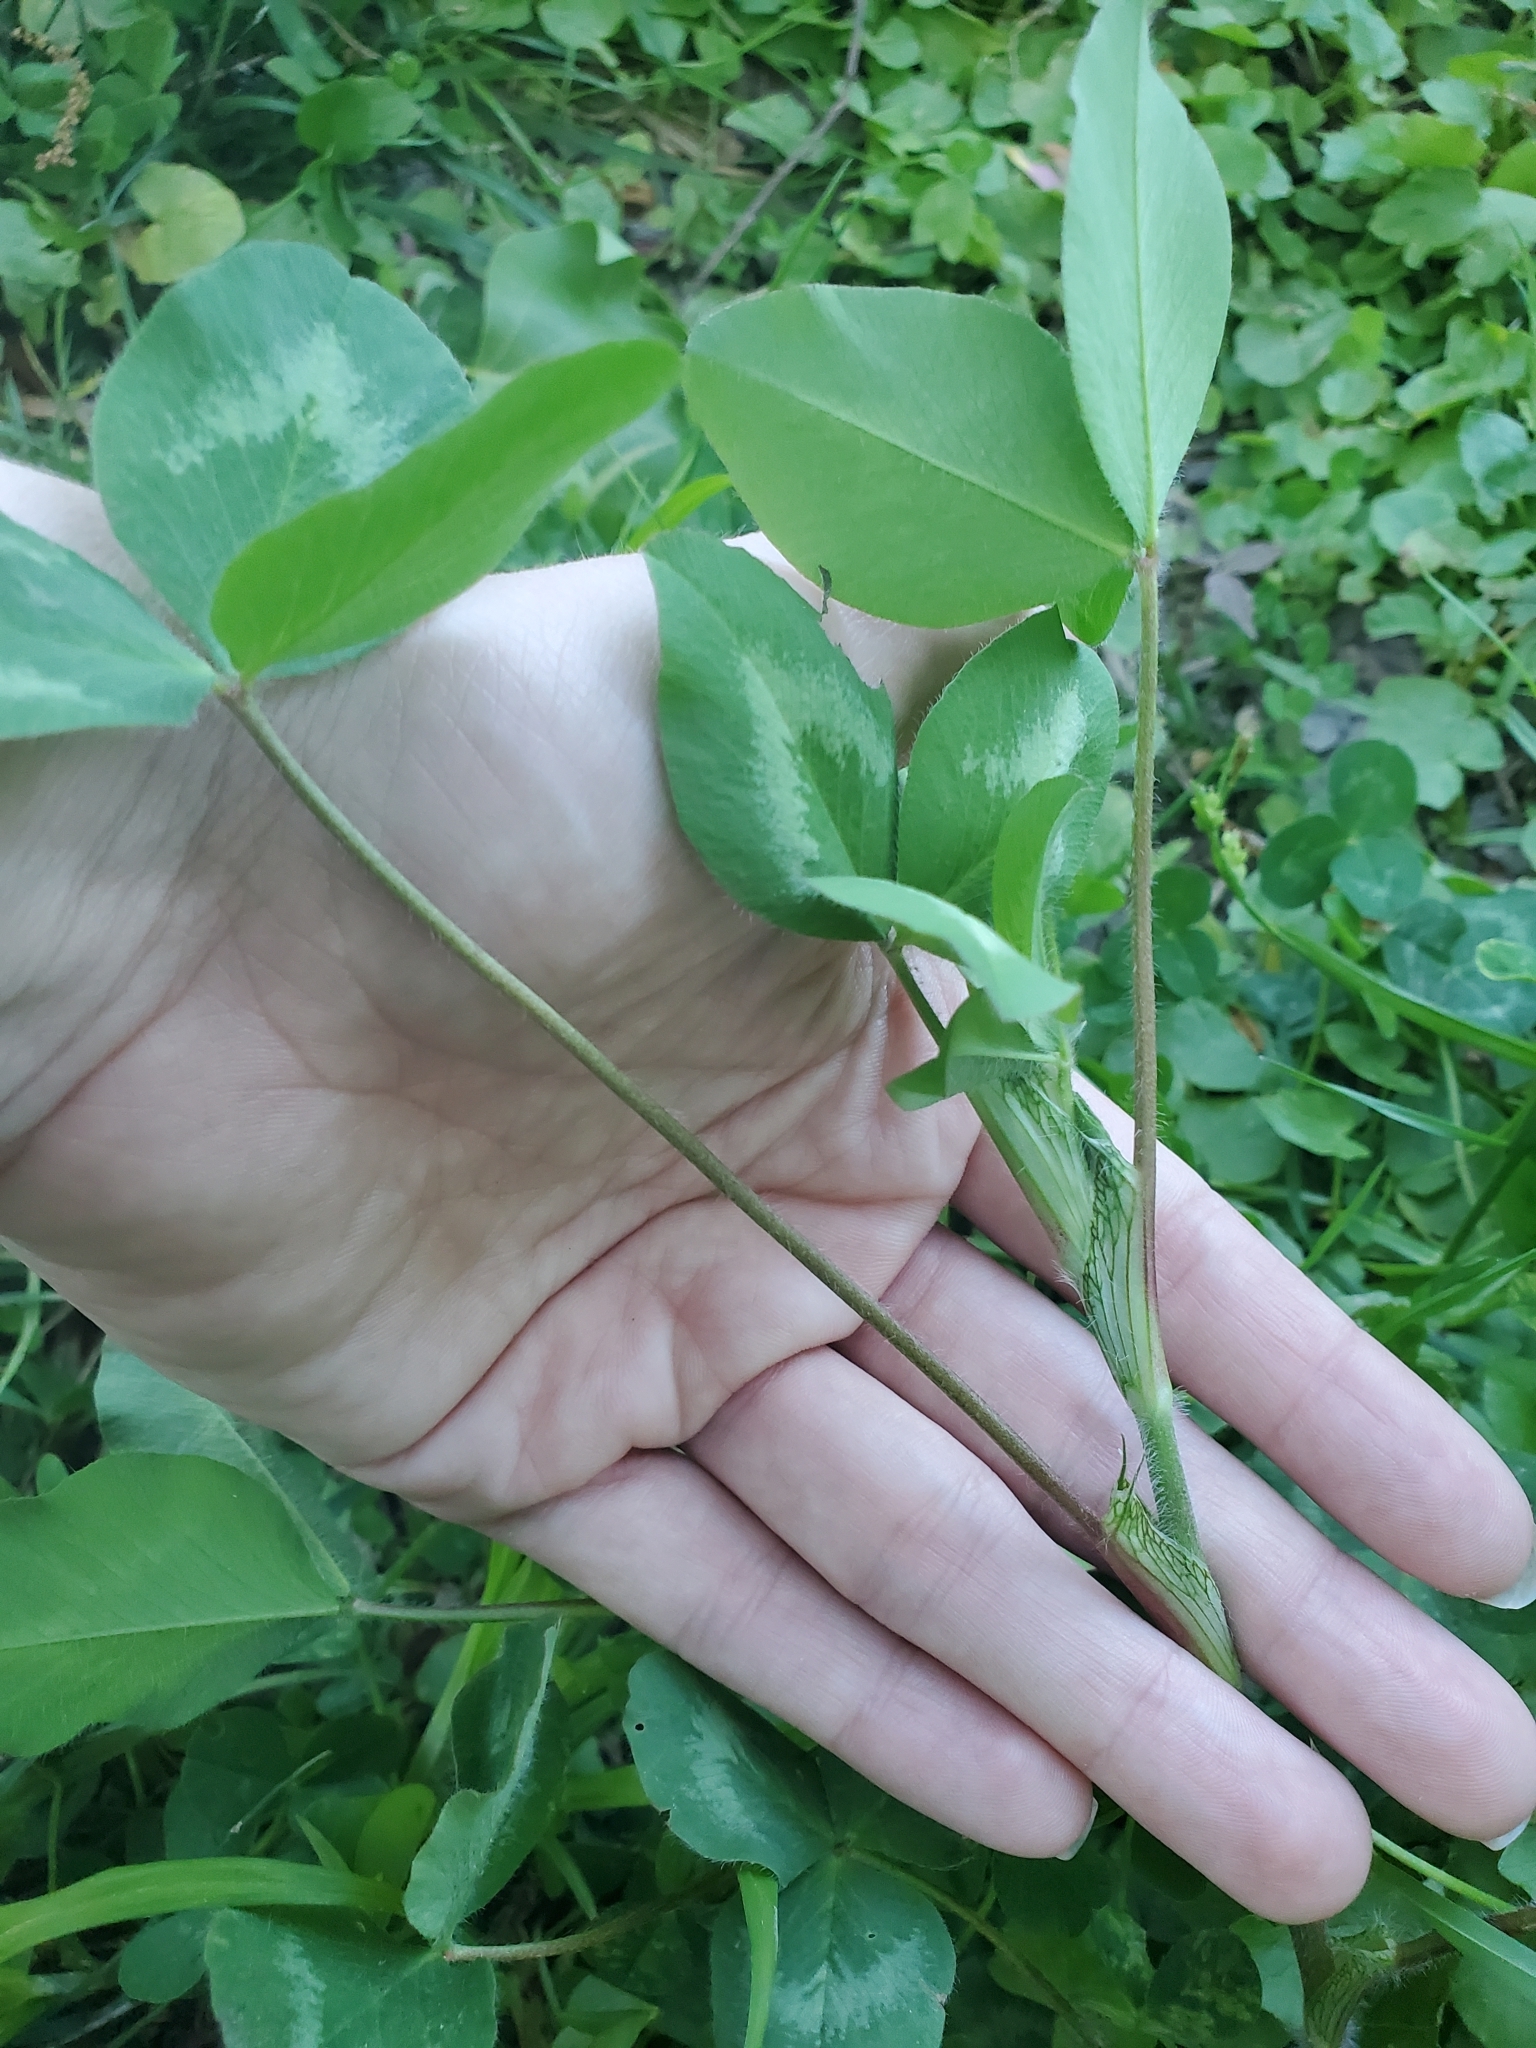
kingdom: Plantae
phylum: Tracheophyta
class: Magnoliopsida
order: Fabales
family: Fabaceae
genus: Trifolium
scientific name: Trifolium pratense
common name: Red clover
